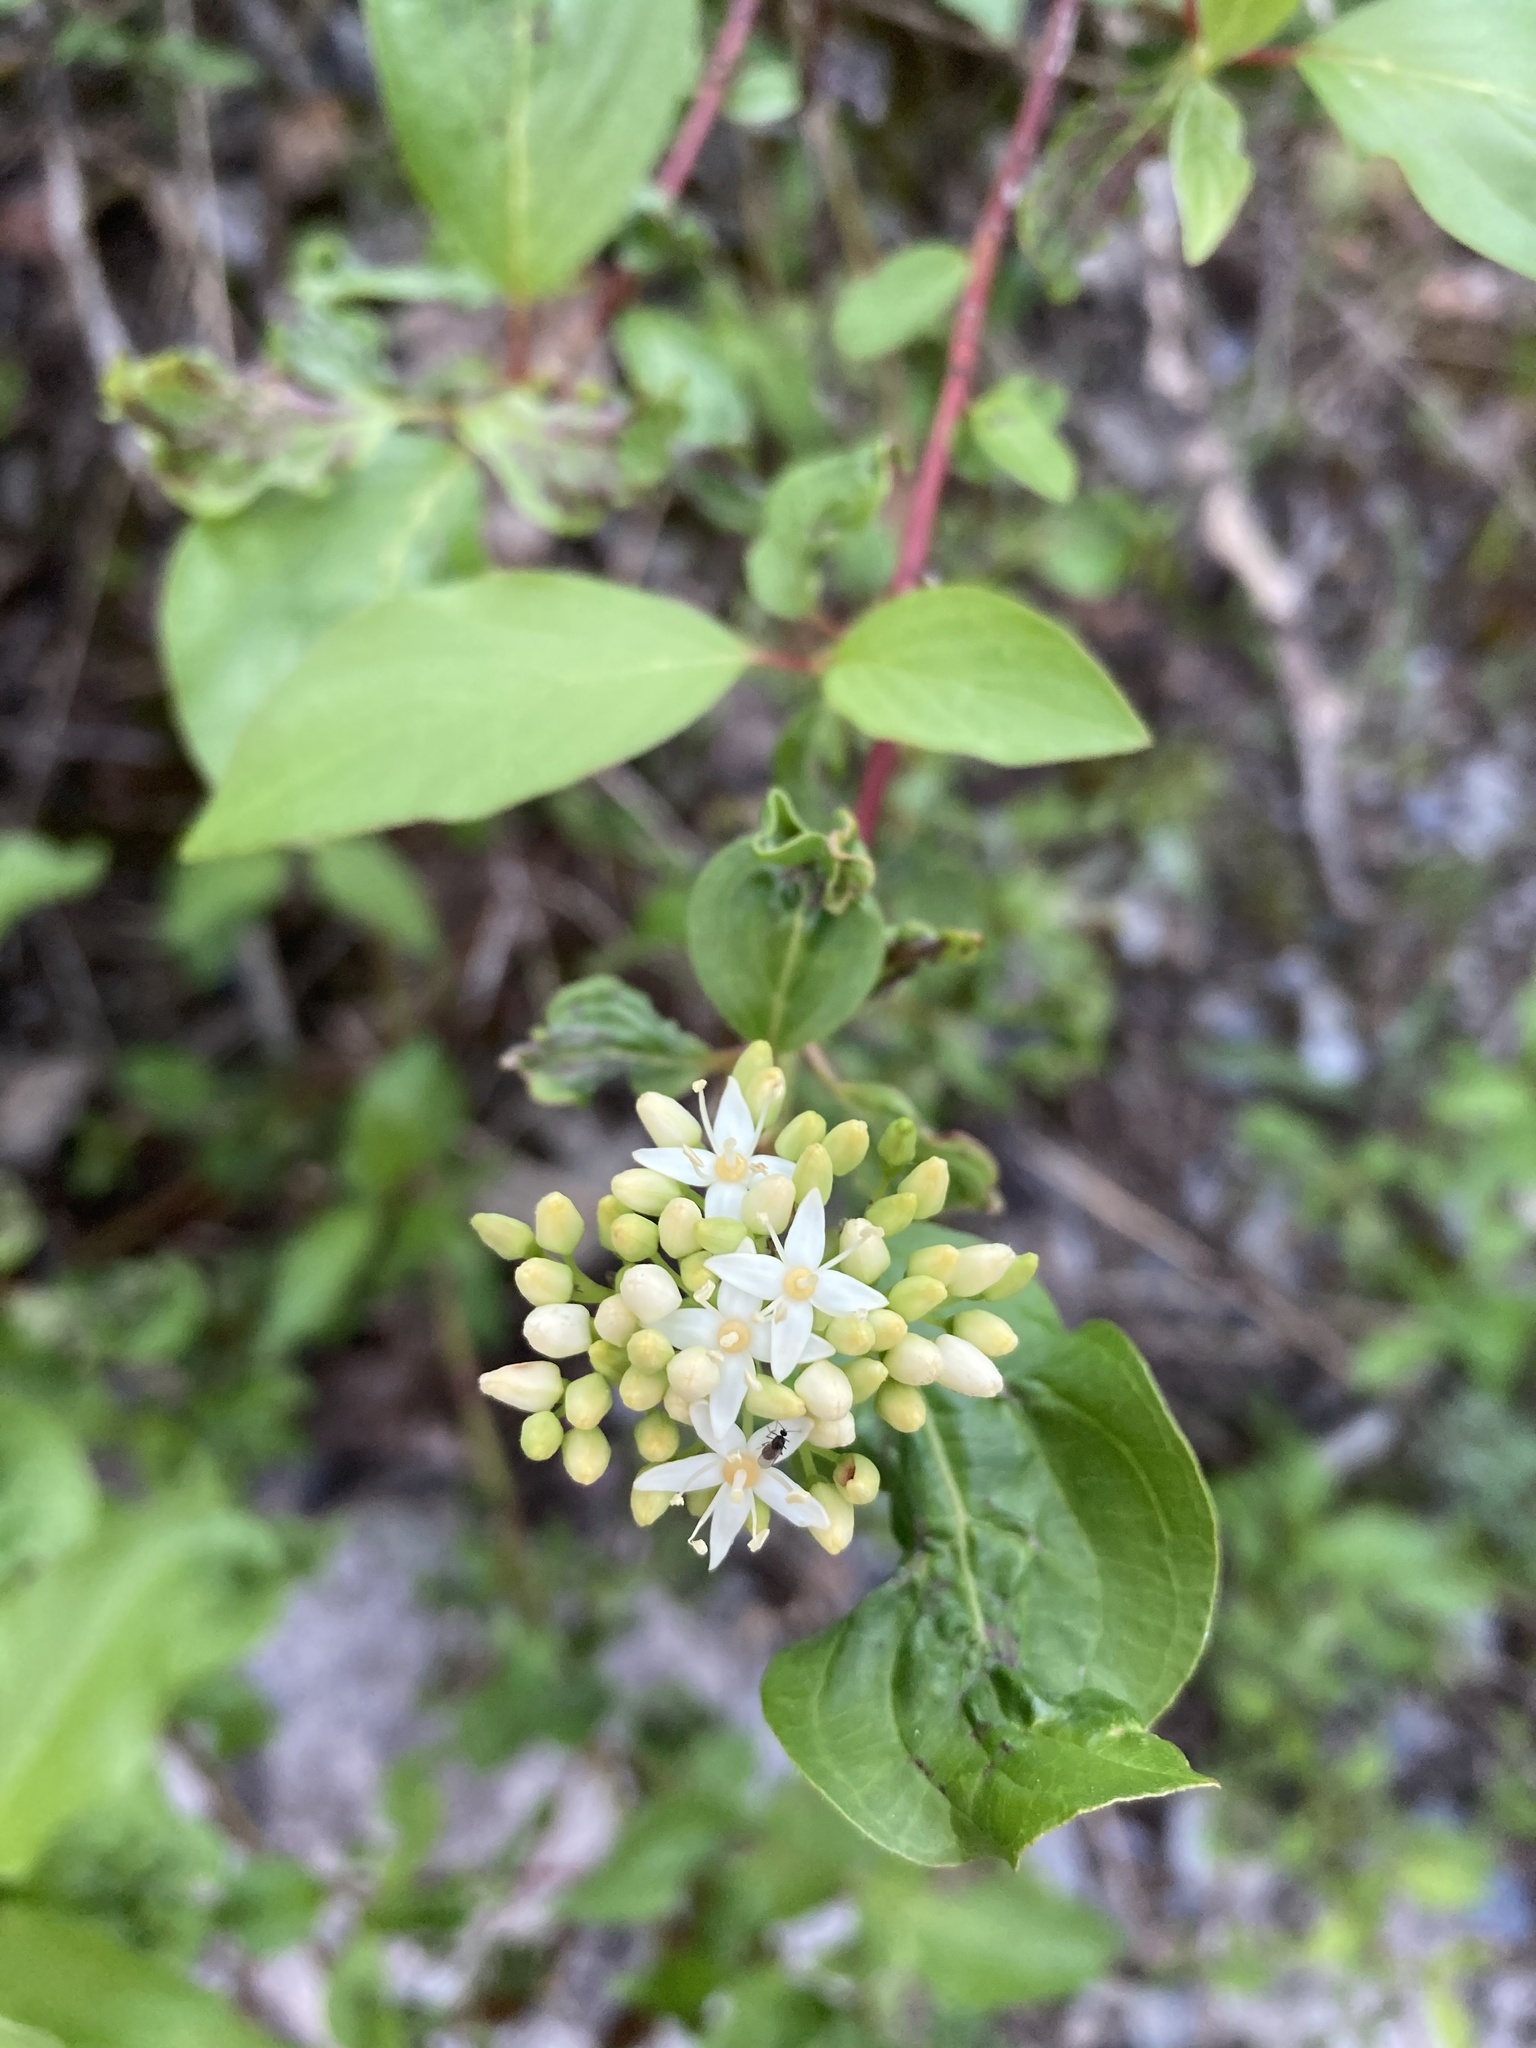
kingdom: Plantae
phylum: Tracheophyta
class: Magnoliopsida
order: Cornales
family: Cornaceae
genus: Cornus
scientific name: Cornus sericea
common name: Red-osier dogwood
